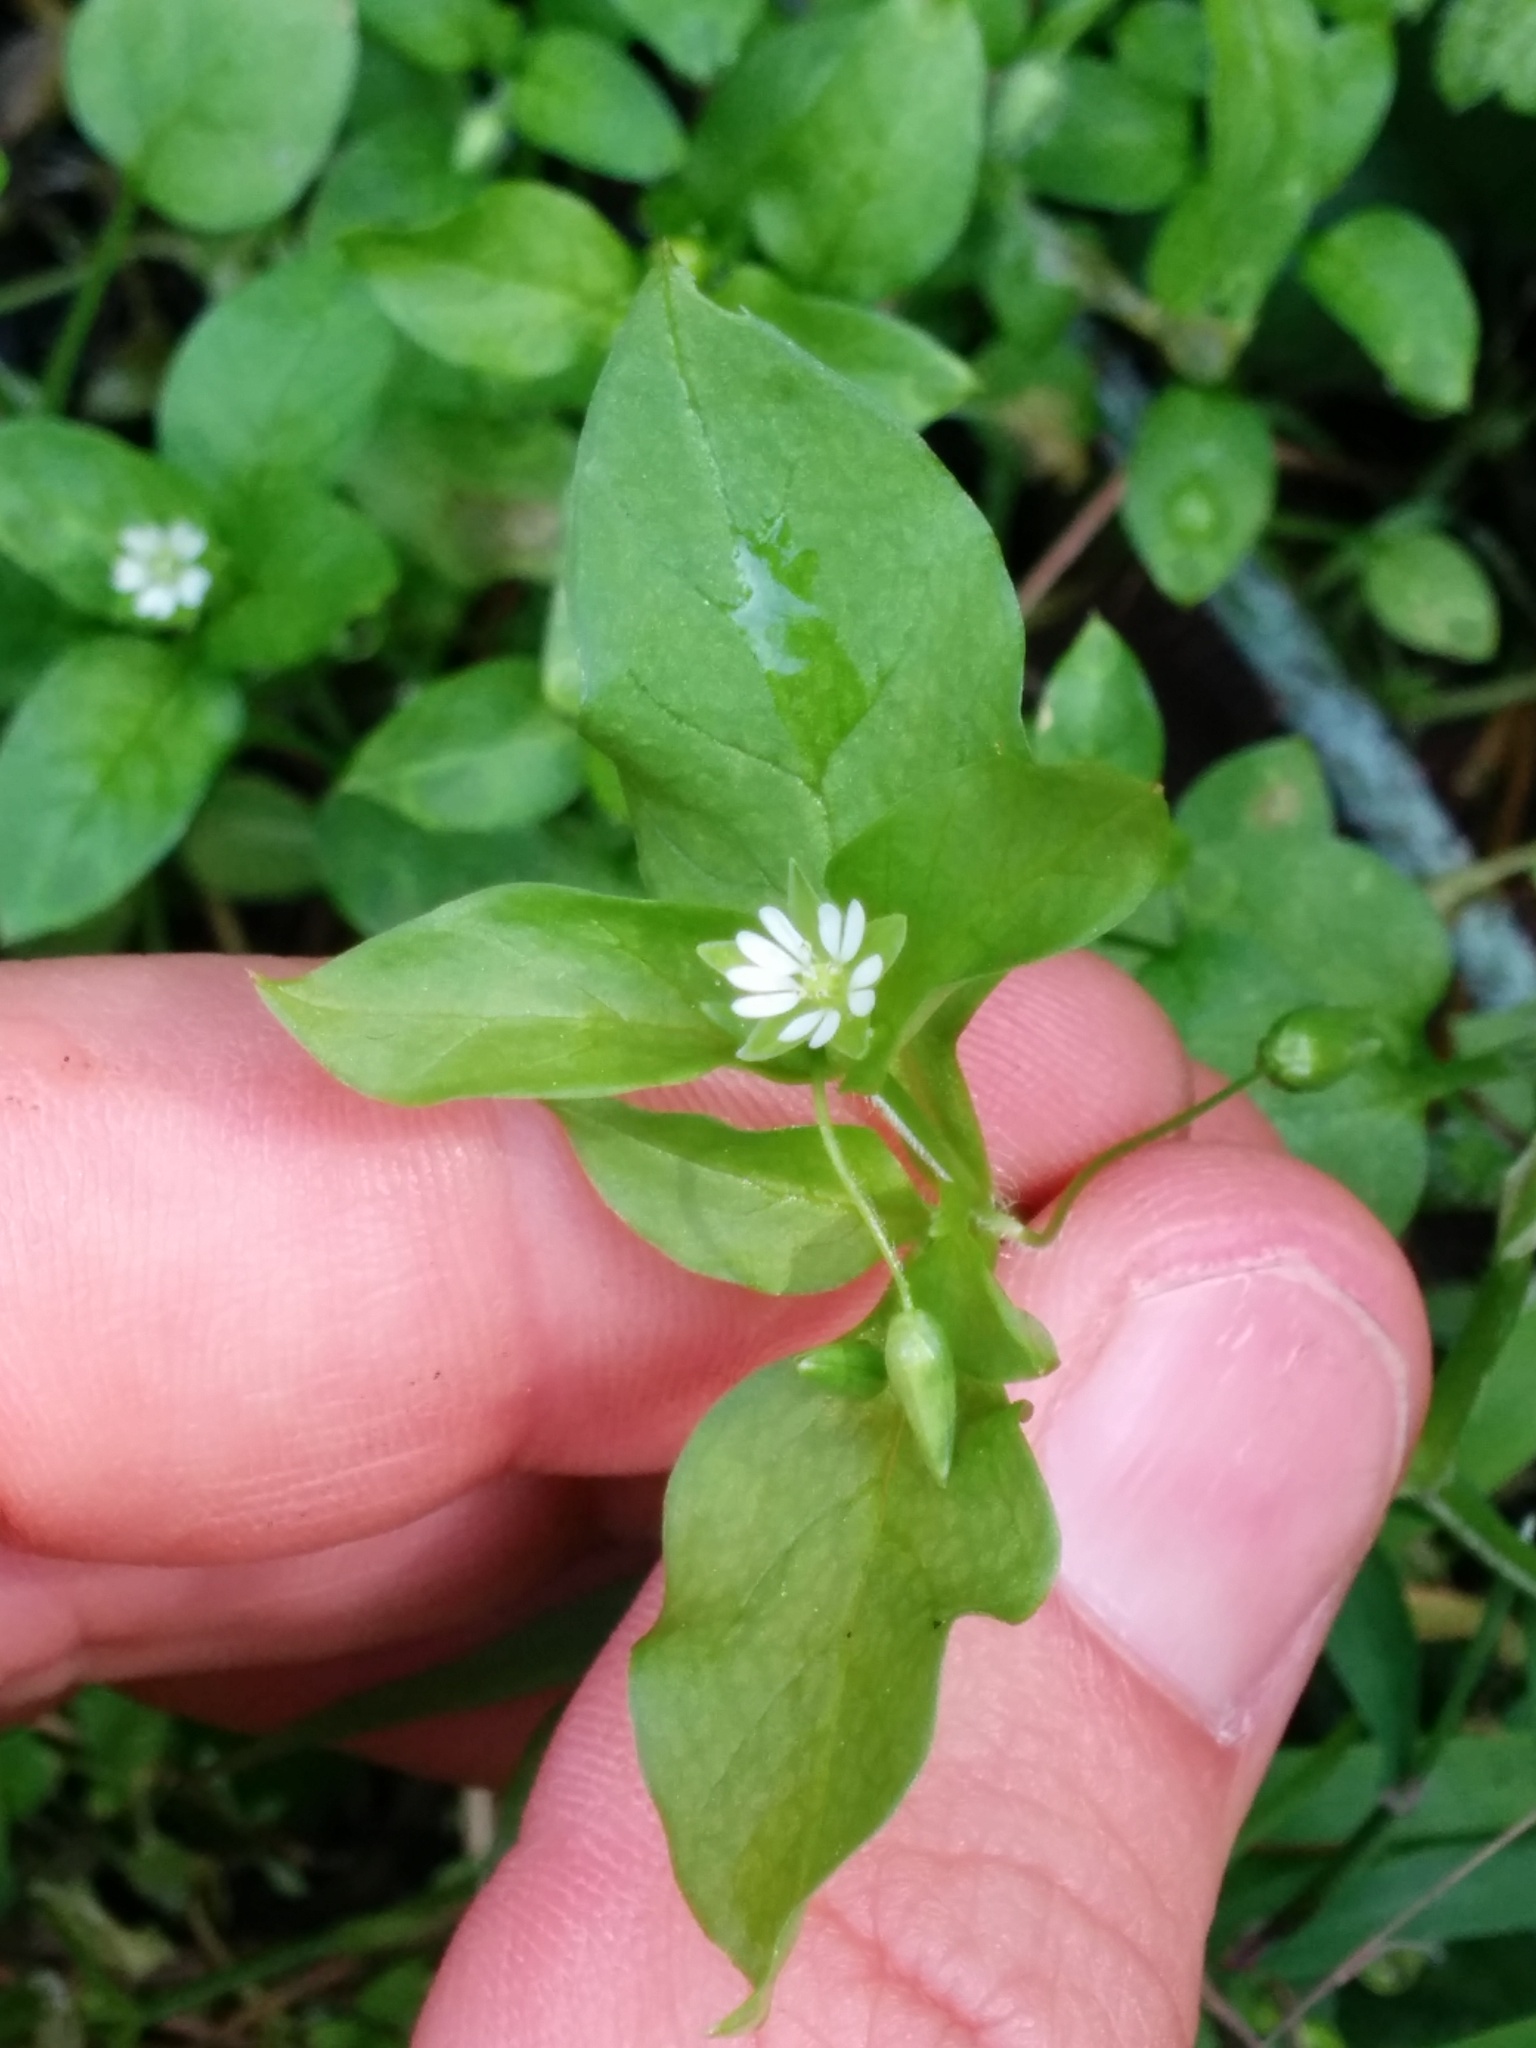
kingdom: Plantae
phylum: Tracheophyta
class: Magnoliopsida
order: Caryophyllales
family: Caryophyllaceae
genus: Stellaria
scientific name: Stellaria media
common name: Common chickweed
